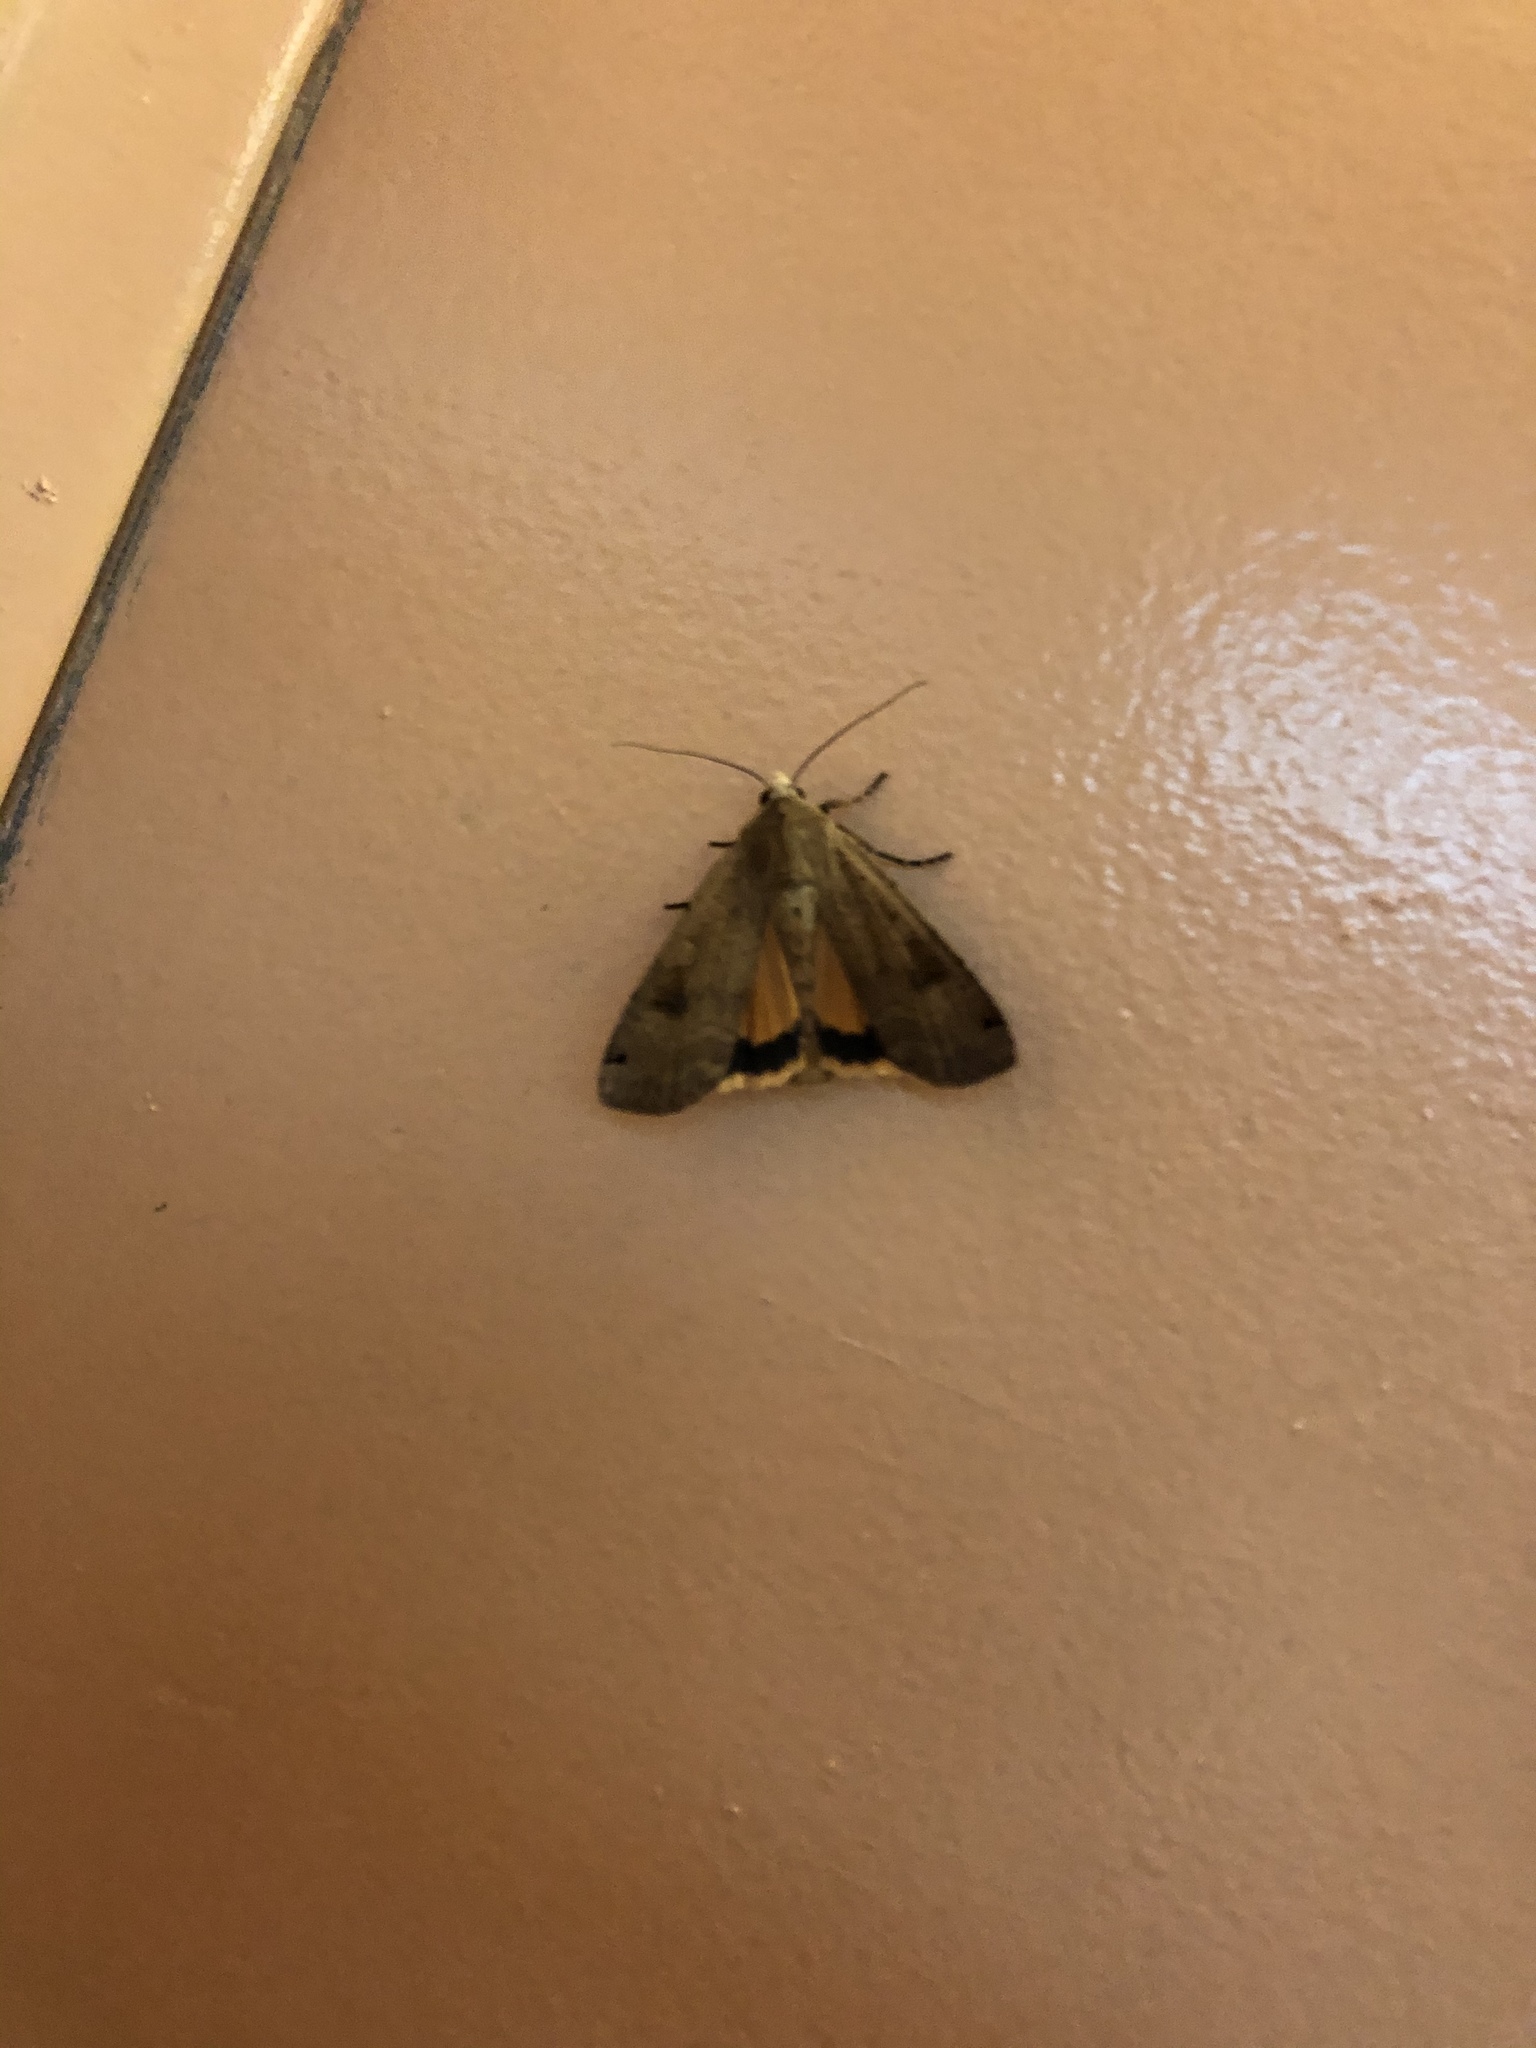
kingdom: Animalia
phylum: Arthropoda
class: Insecta
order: Lepidoptera
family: Noctuidae
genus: Noctua
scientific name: Noctua pronuba
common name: Large yellow underwing
